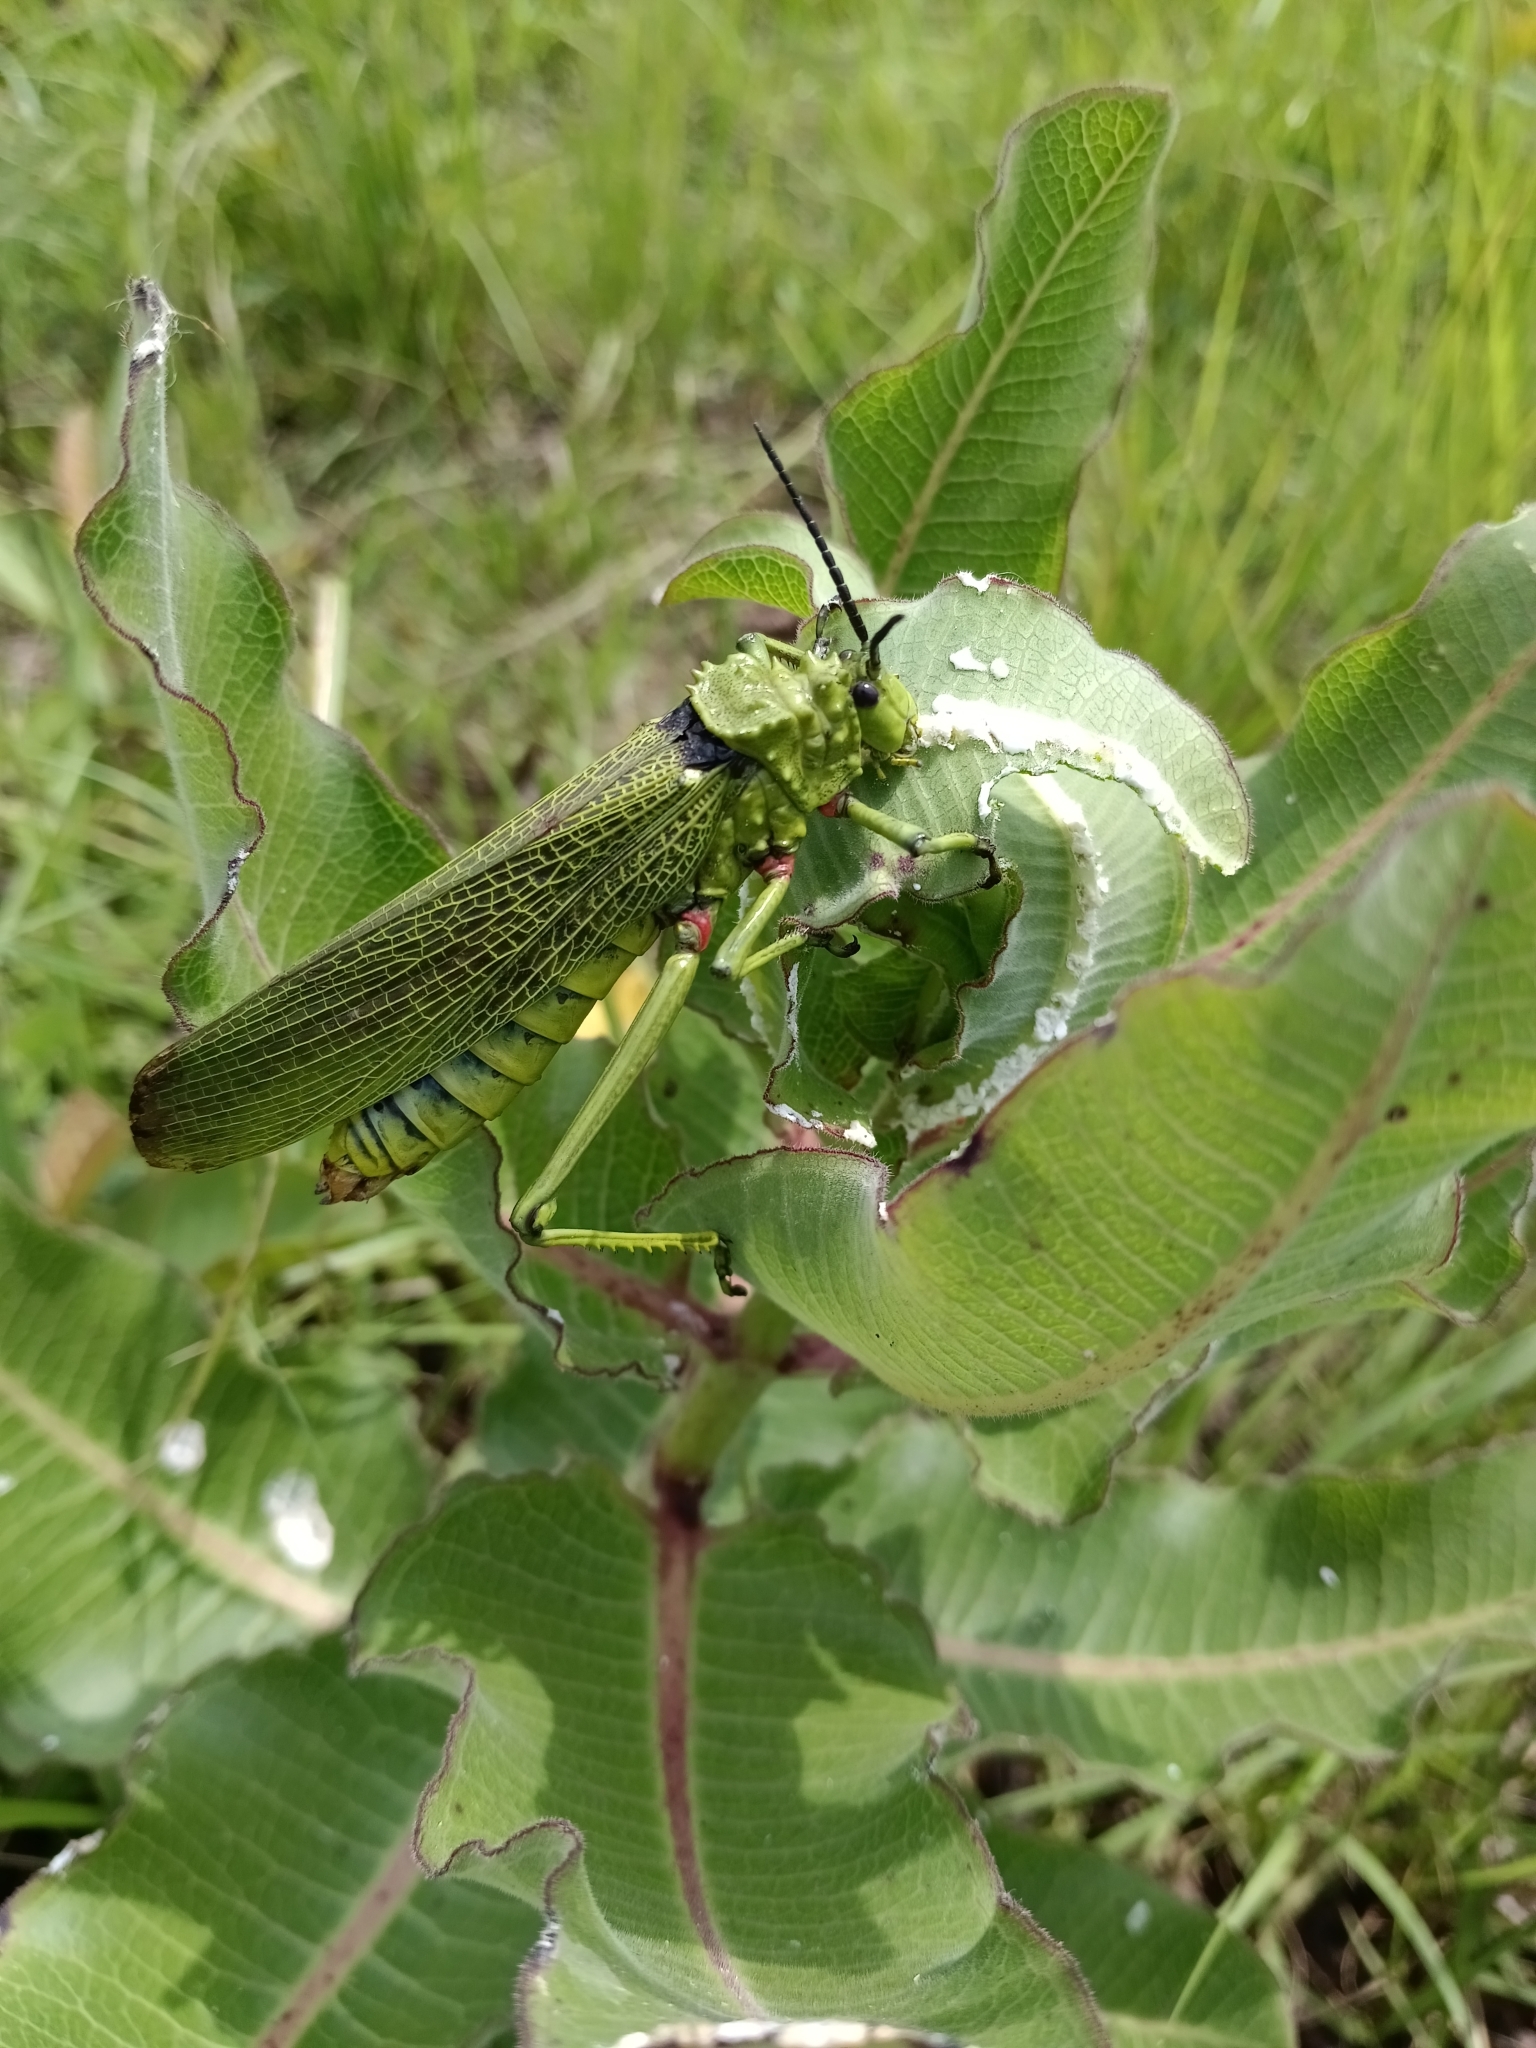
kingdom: Animalia
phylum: Arthropoda
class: Insecta
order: Orthoptera
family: Pyrgomorphidae
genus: Phymateus
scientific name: Phymateus viridipes
